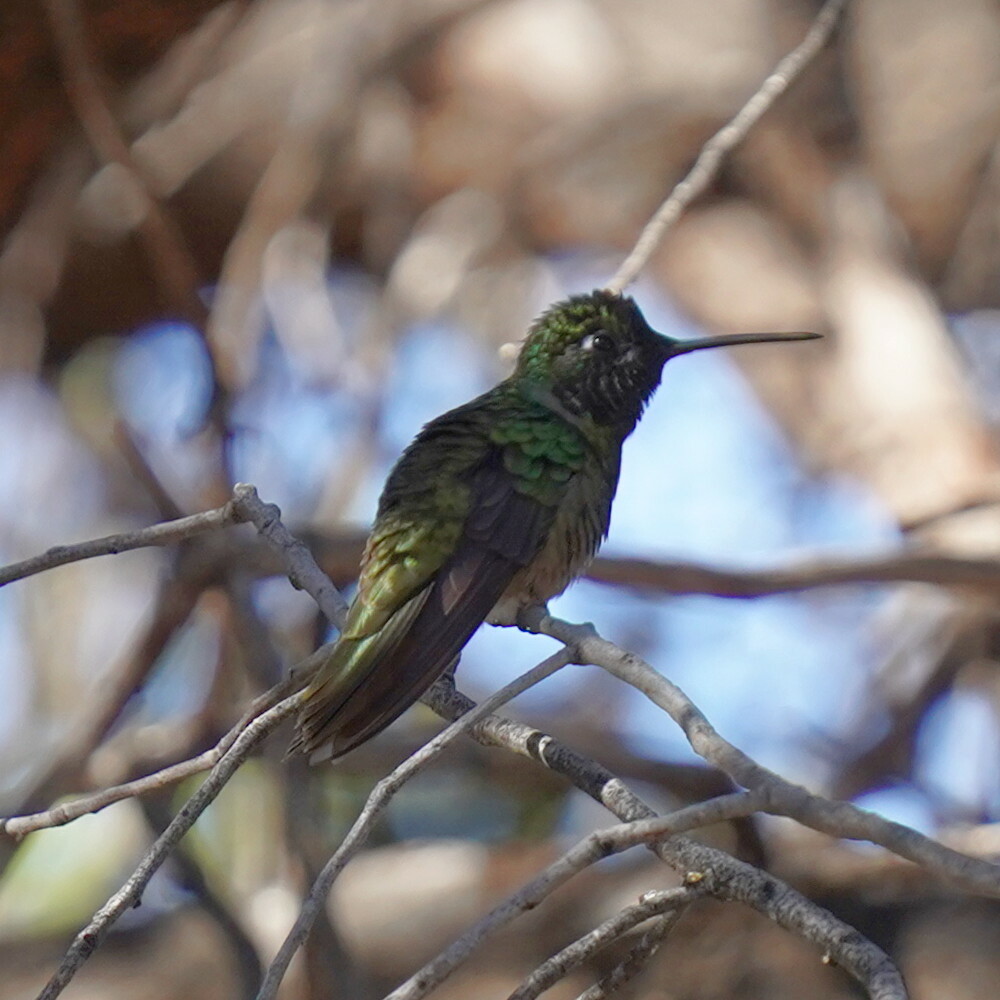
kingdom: Animalia
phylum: Chordata
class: Aves
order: Apodiformes
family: Trochilidae
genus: Eugenes
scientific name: Eugenes fulgens
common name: Magnificent hummingbird
